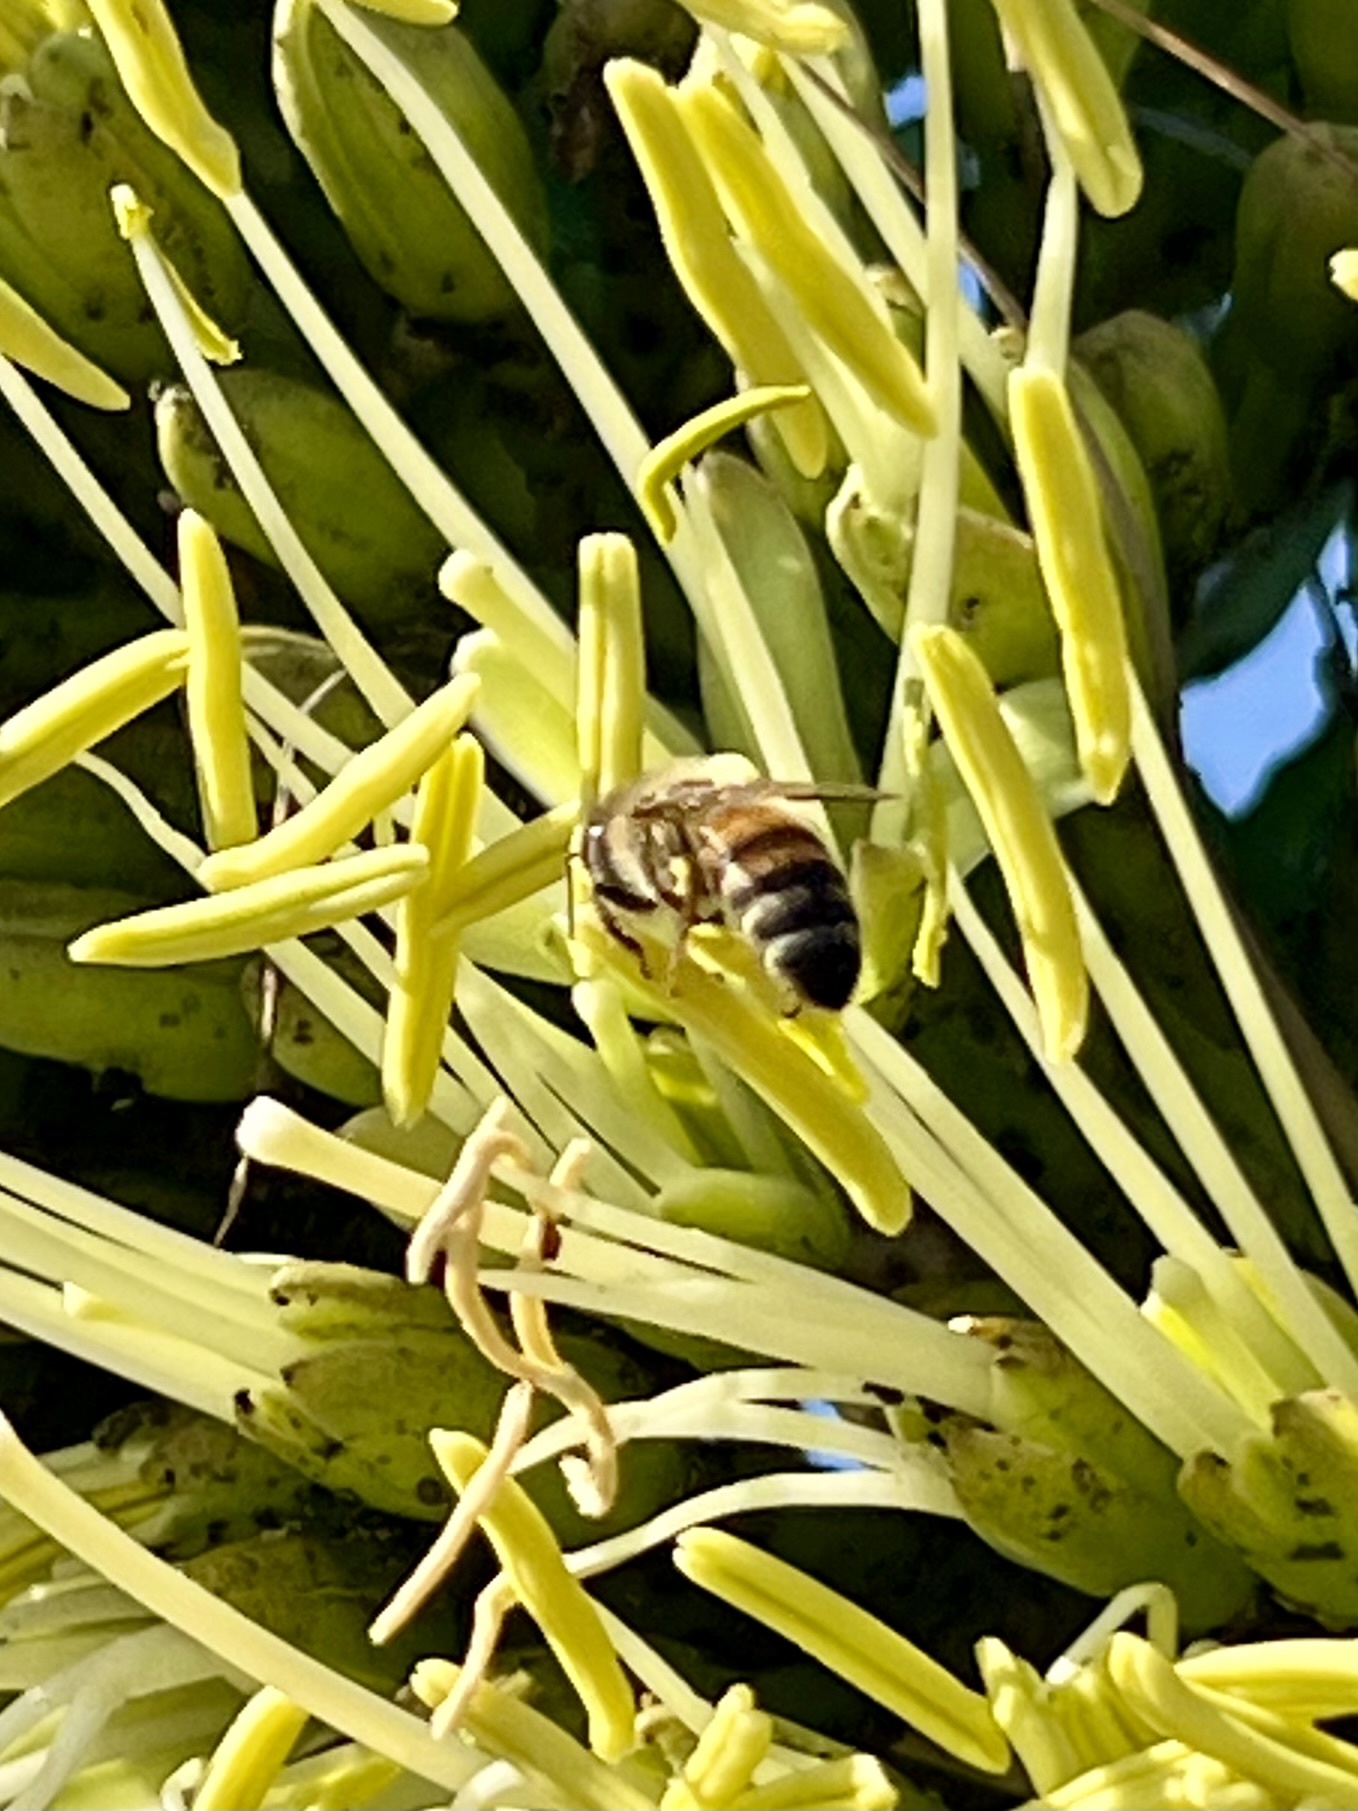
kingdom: Animalia
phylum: Arthropoda
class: Insecta
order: Hymenoptera
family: Apidae
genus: Apis
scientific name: Apis mellifera
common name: Honey bee
